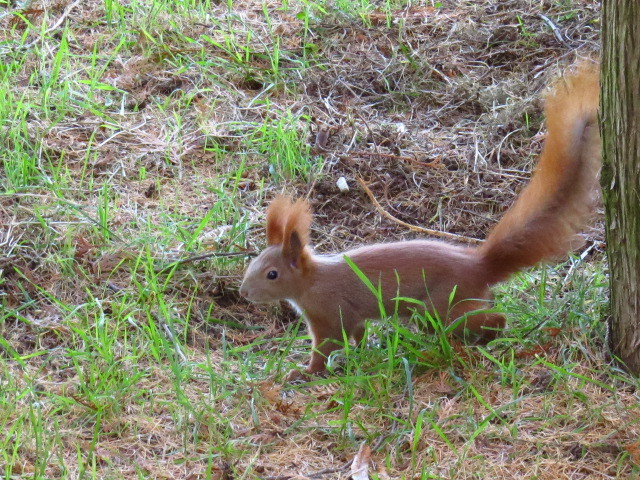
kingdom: Animalia
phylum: Chordata
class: Mammalia
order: Rodentia
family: Sciuridae
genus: Sciurus
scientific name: Sciurus vulgaris
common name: Eurasian red squirrel
